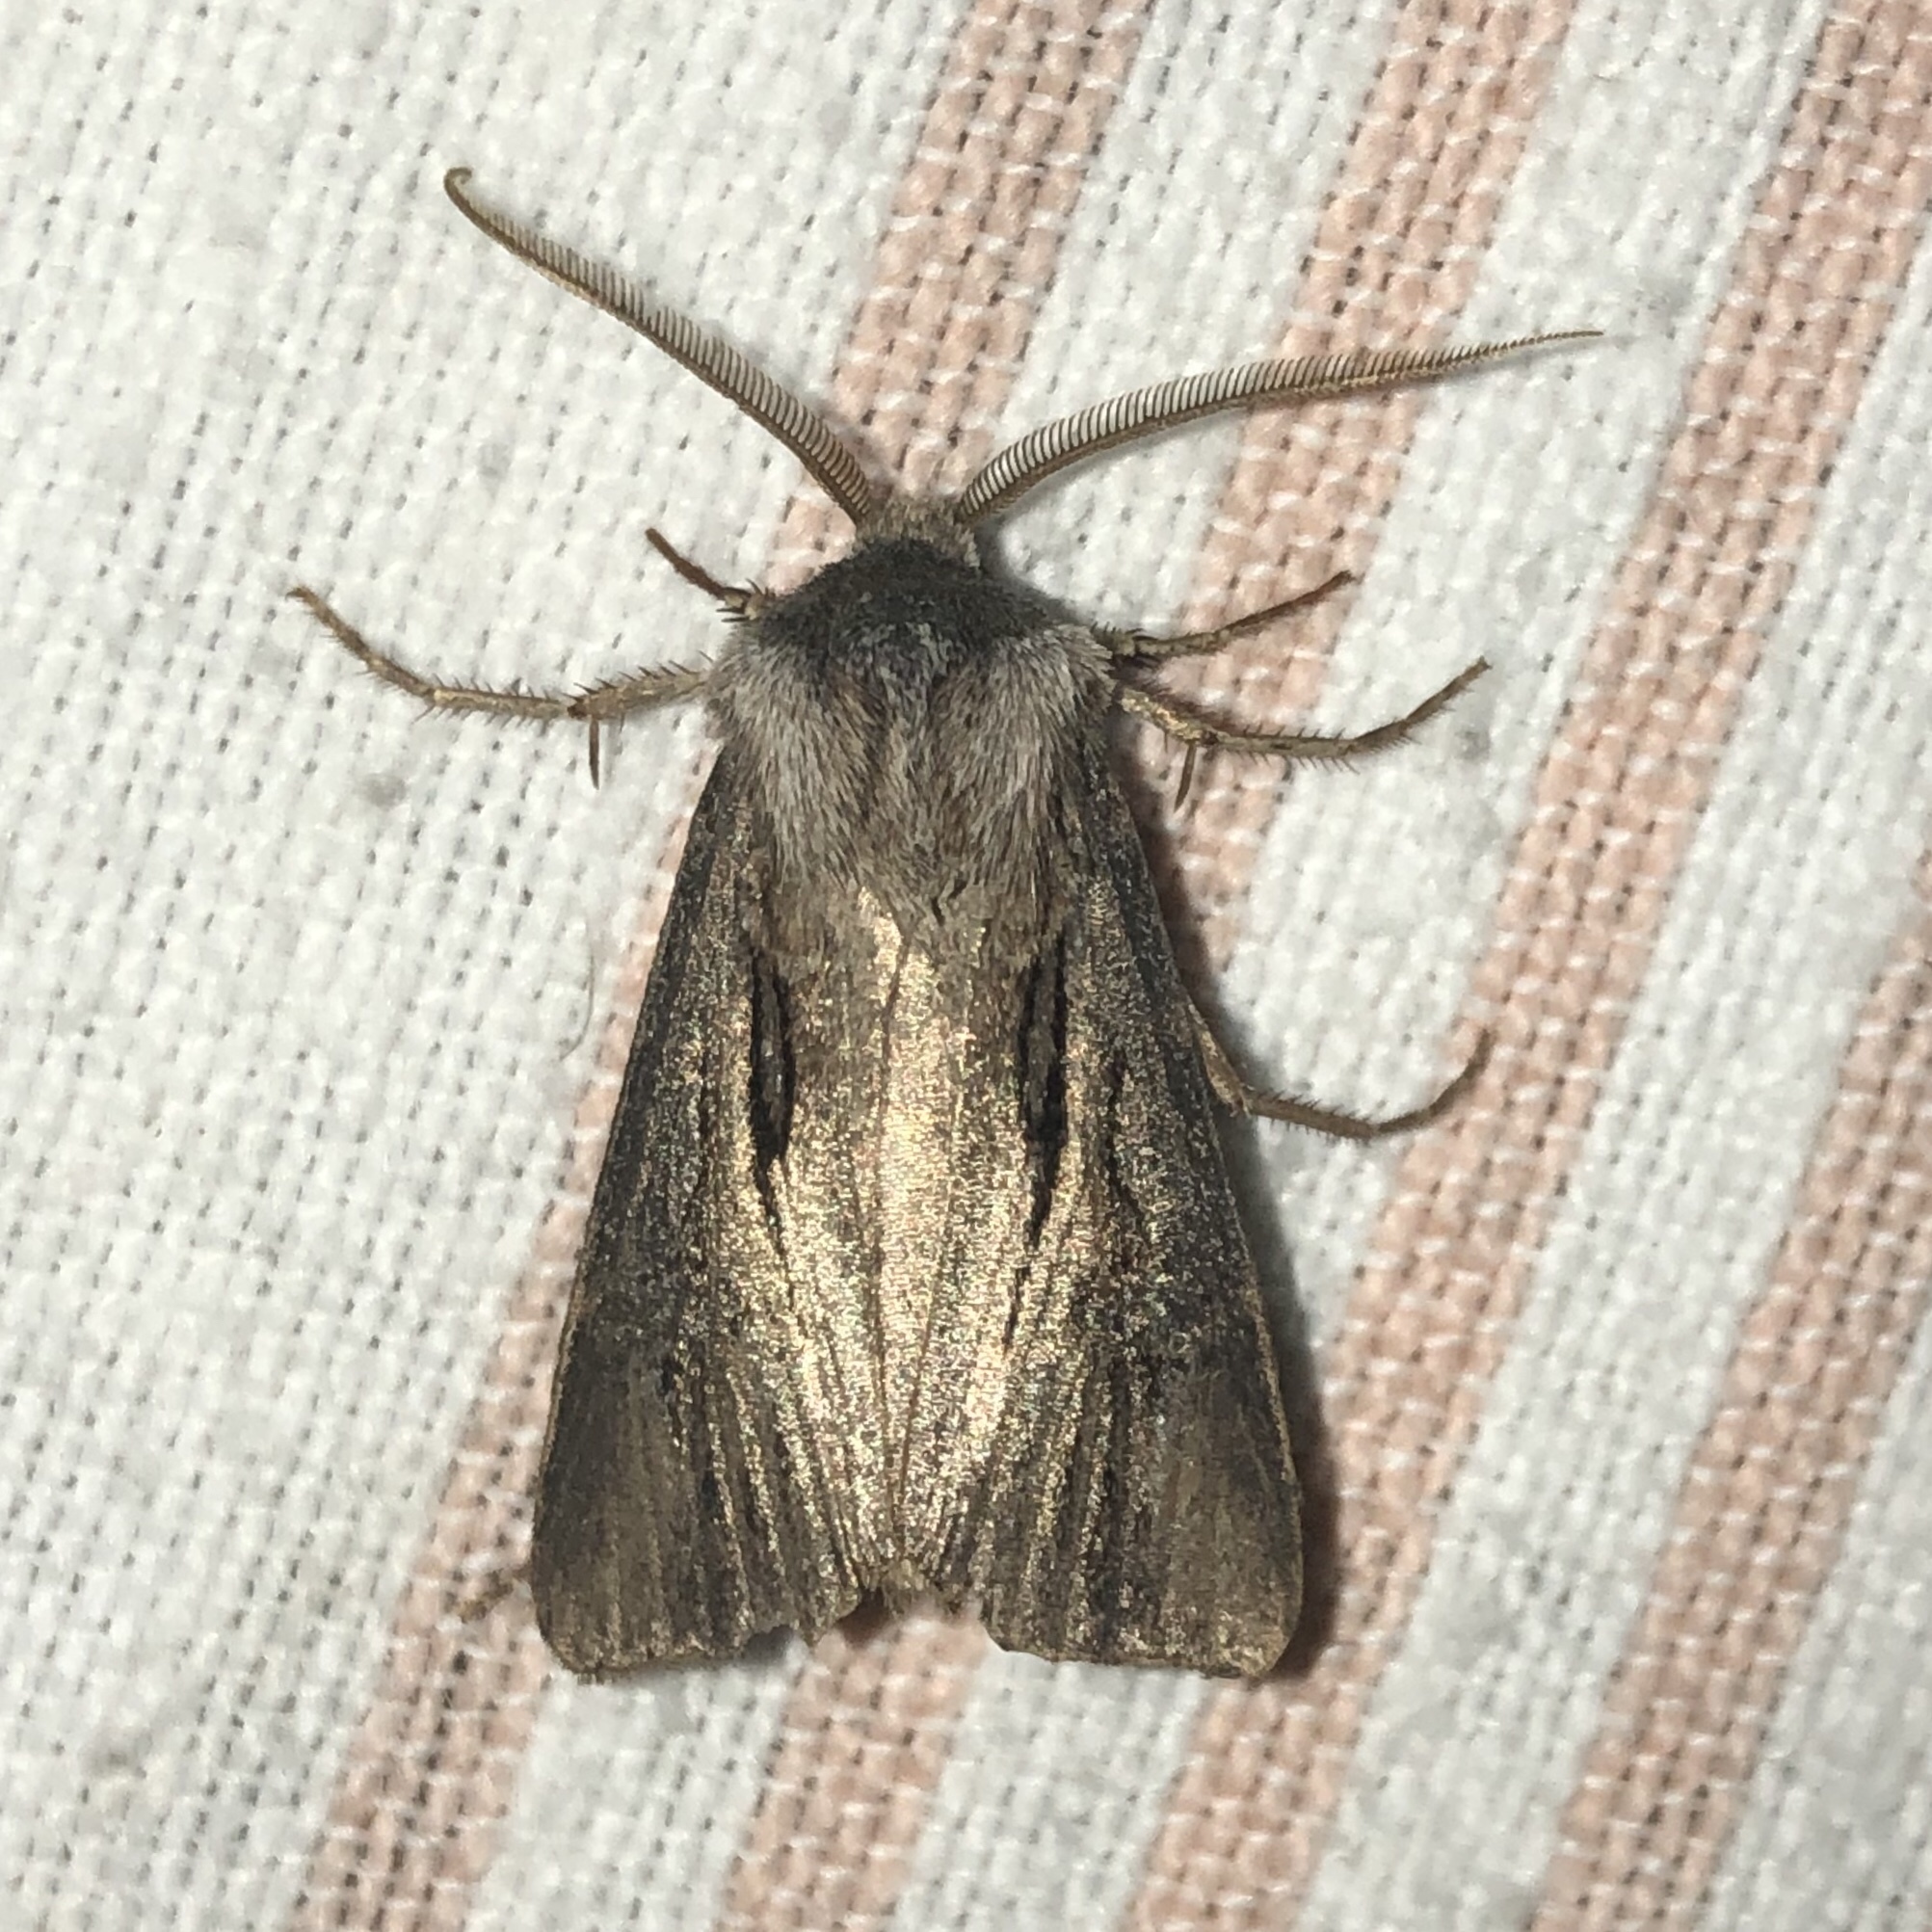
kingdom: Animalia
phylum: Arthropoda
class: Insecta
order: Lepidoptera
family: Noctuidae
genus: Agrotis
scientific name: Agrotis venerabilis
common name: Venerable dart
